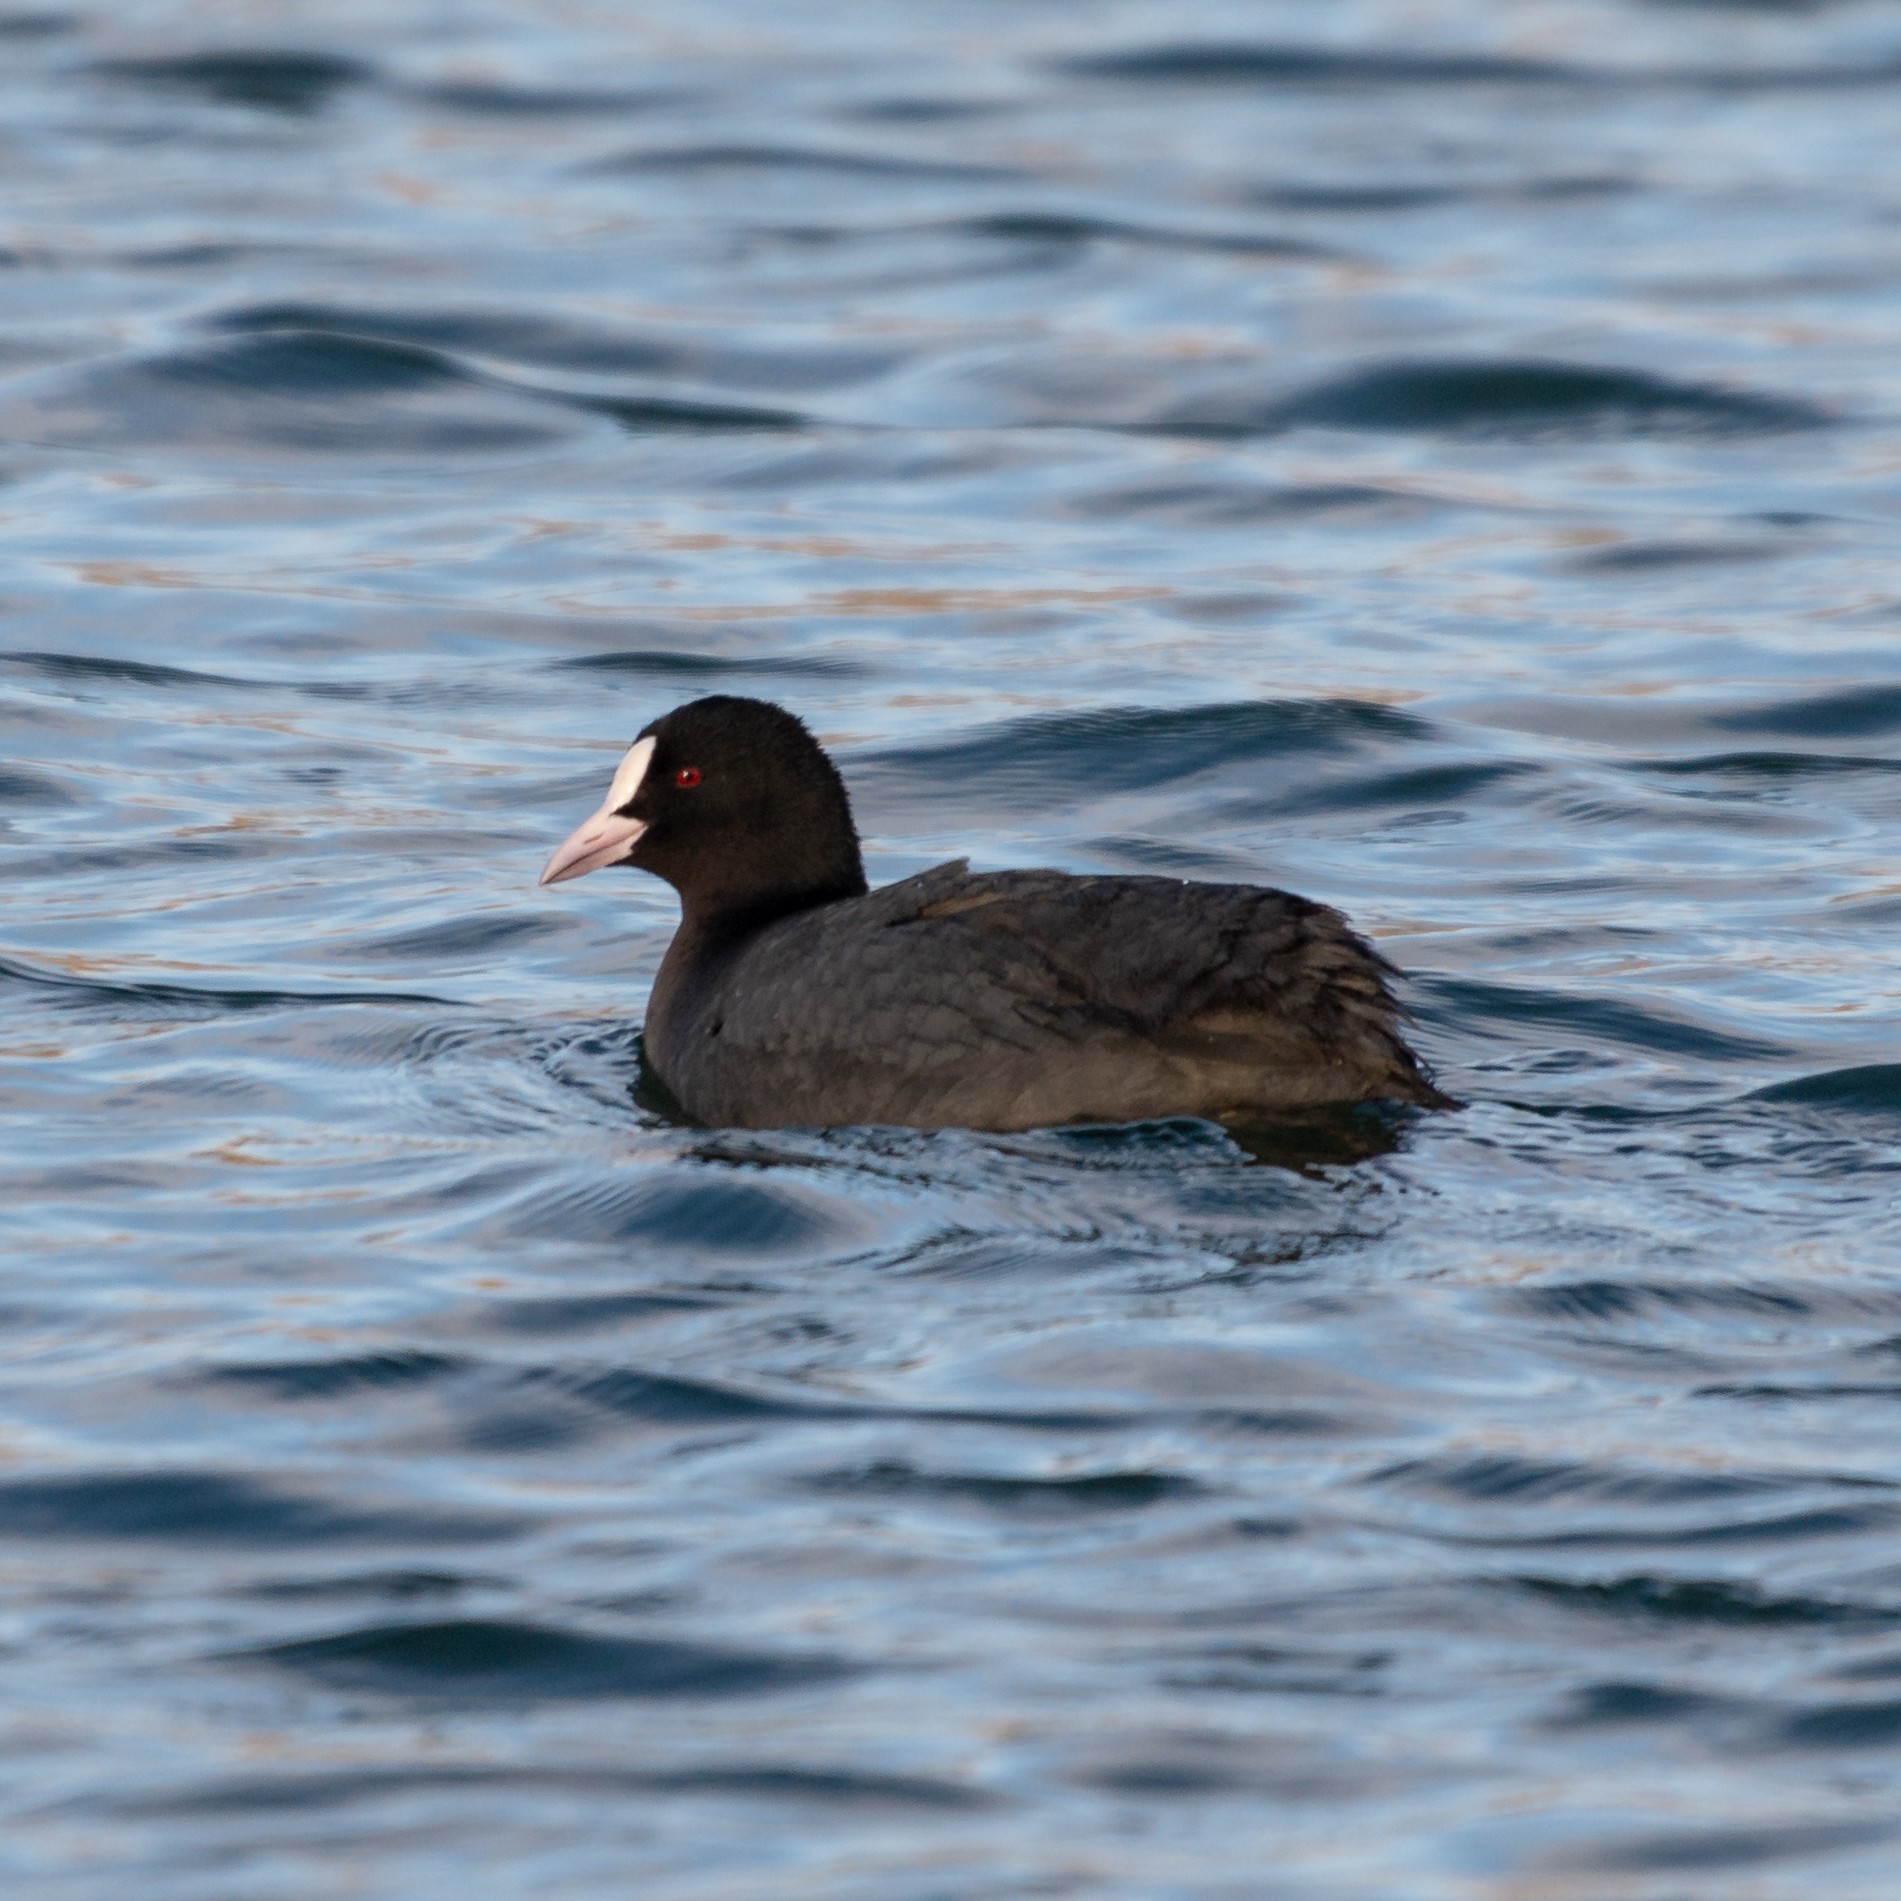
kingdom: Animalia
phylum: Chordata
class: Aves
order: Gruiformes
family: Rallidae
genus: Fulica
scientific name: Fulica atra
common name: Eurasian coot
